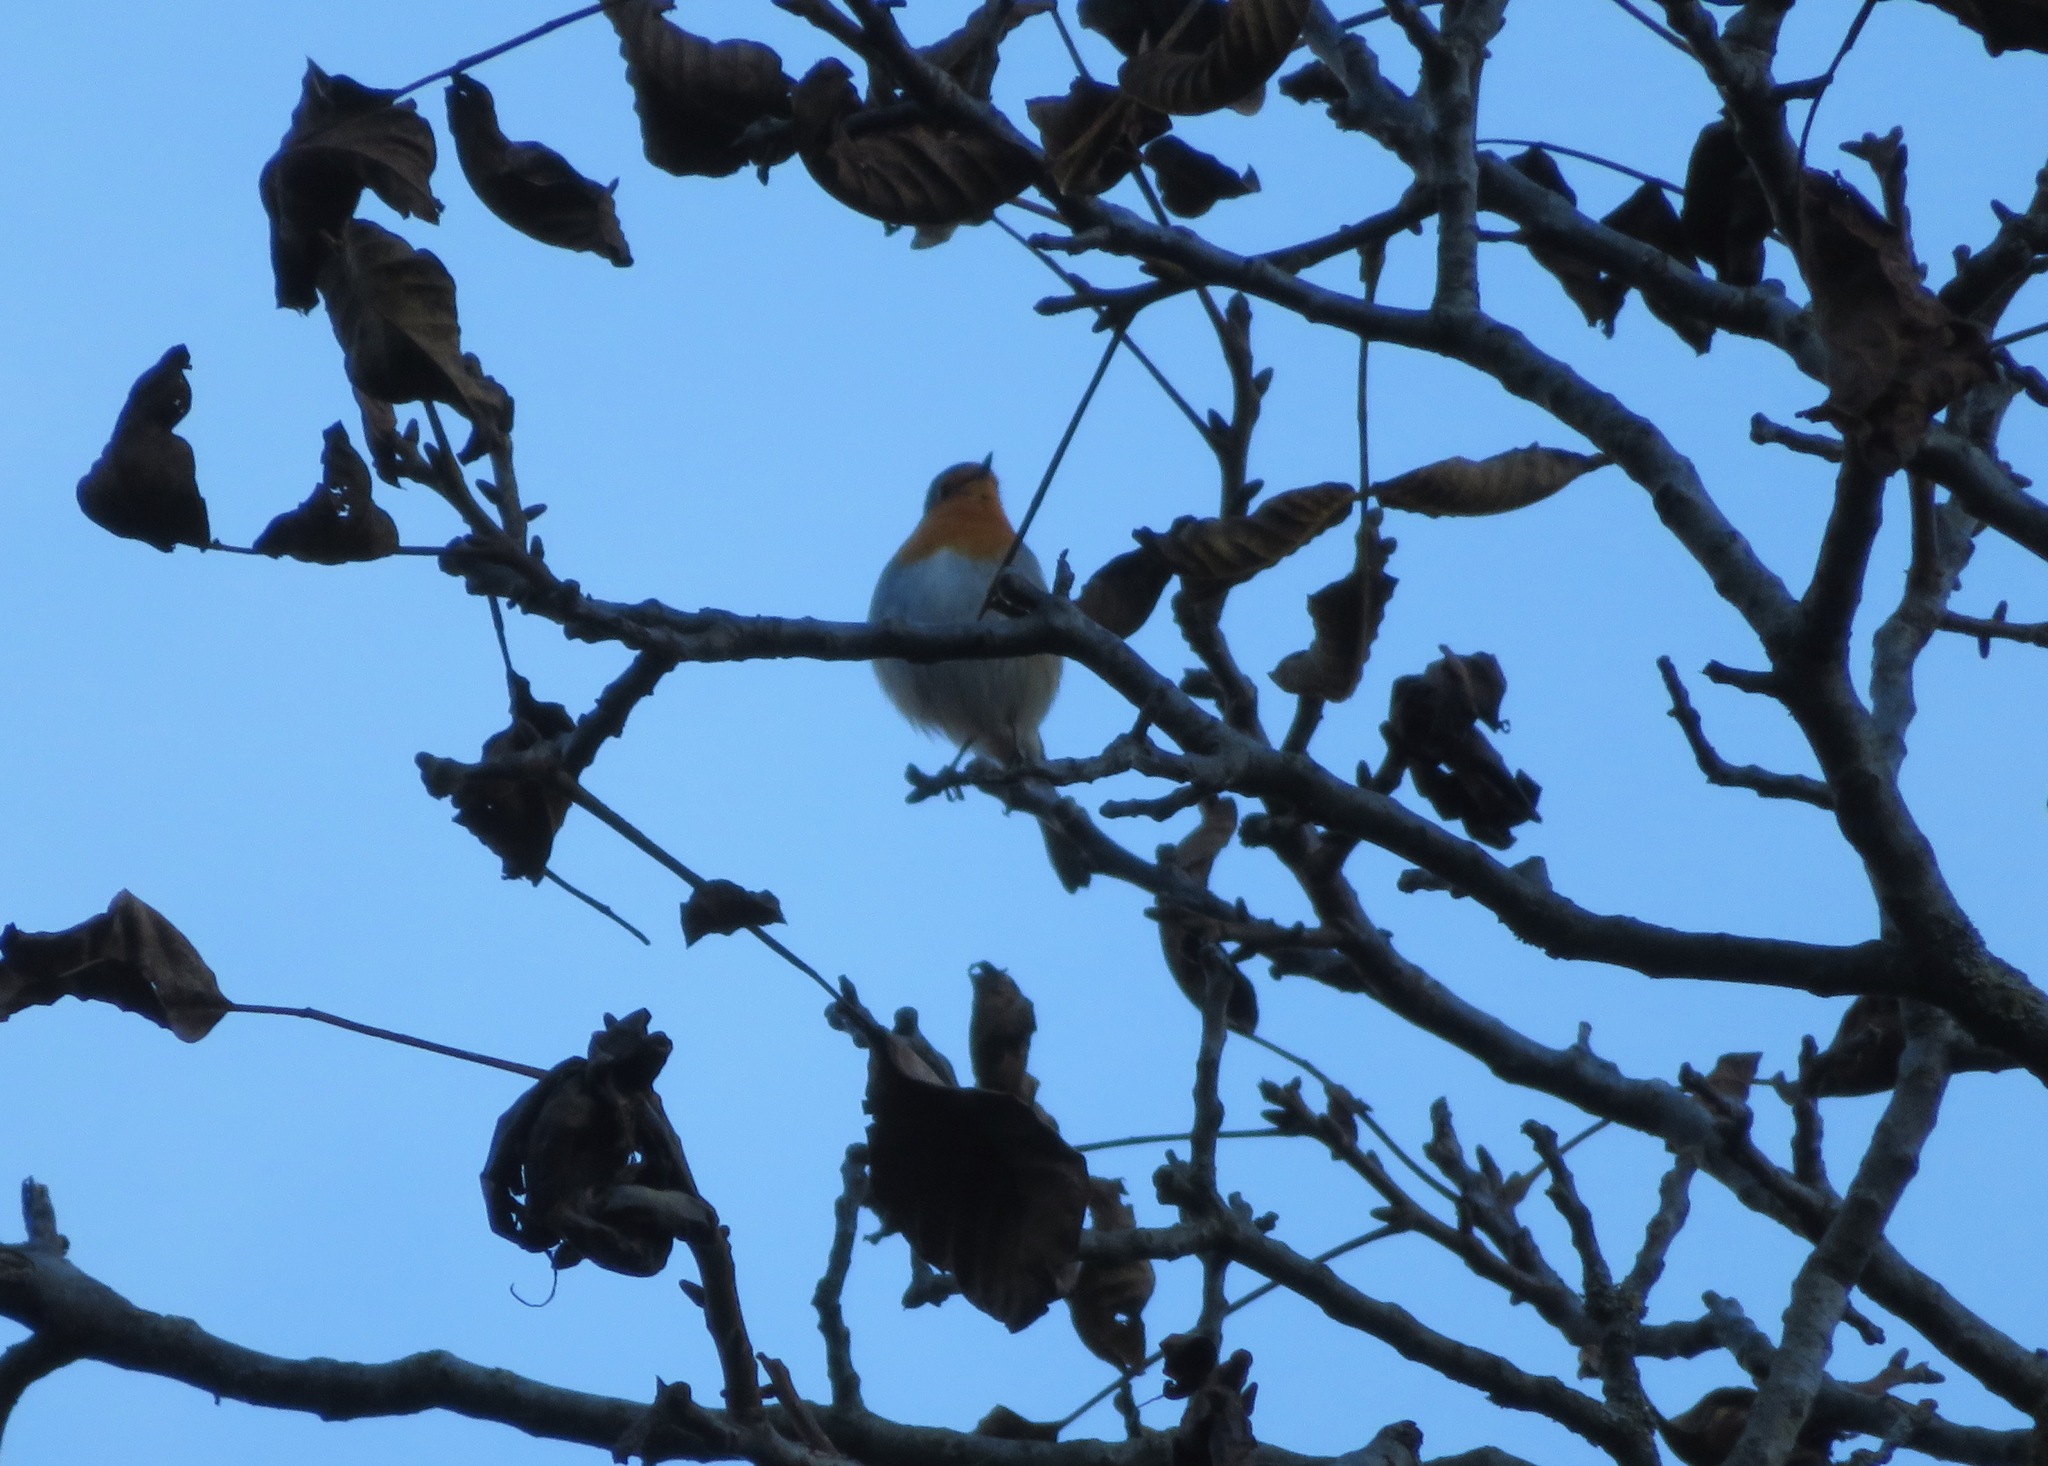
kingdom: Animalia
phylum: Chordata
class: Aves
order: Passeriformes
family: Muscicapidae
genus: Erithacus
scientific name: Erithacus rubecula
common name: European robin
